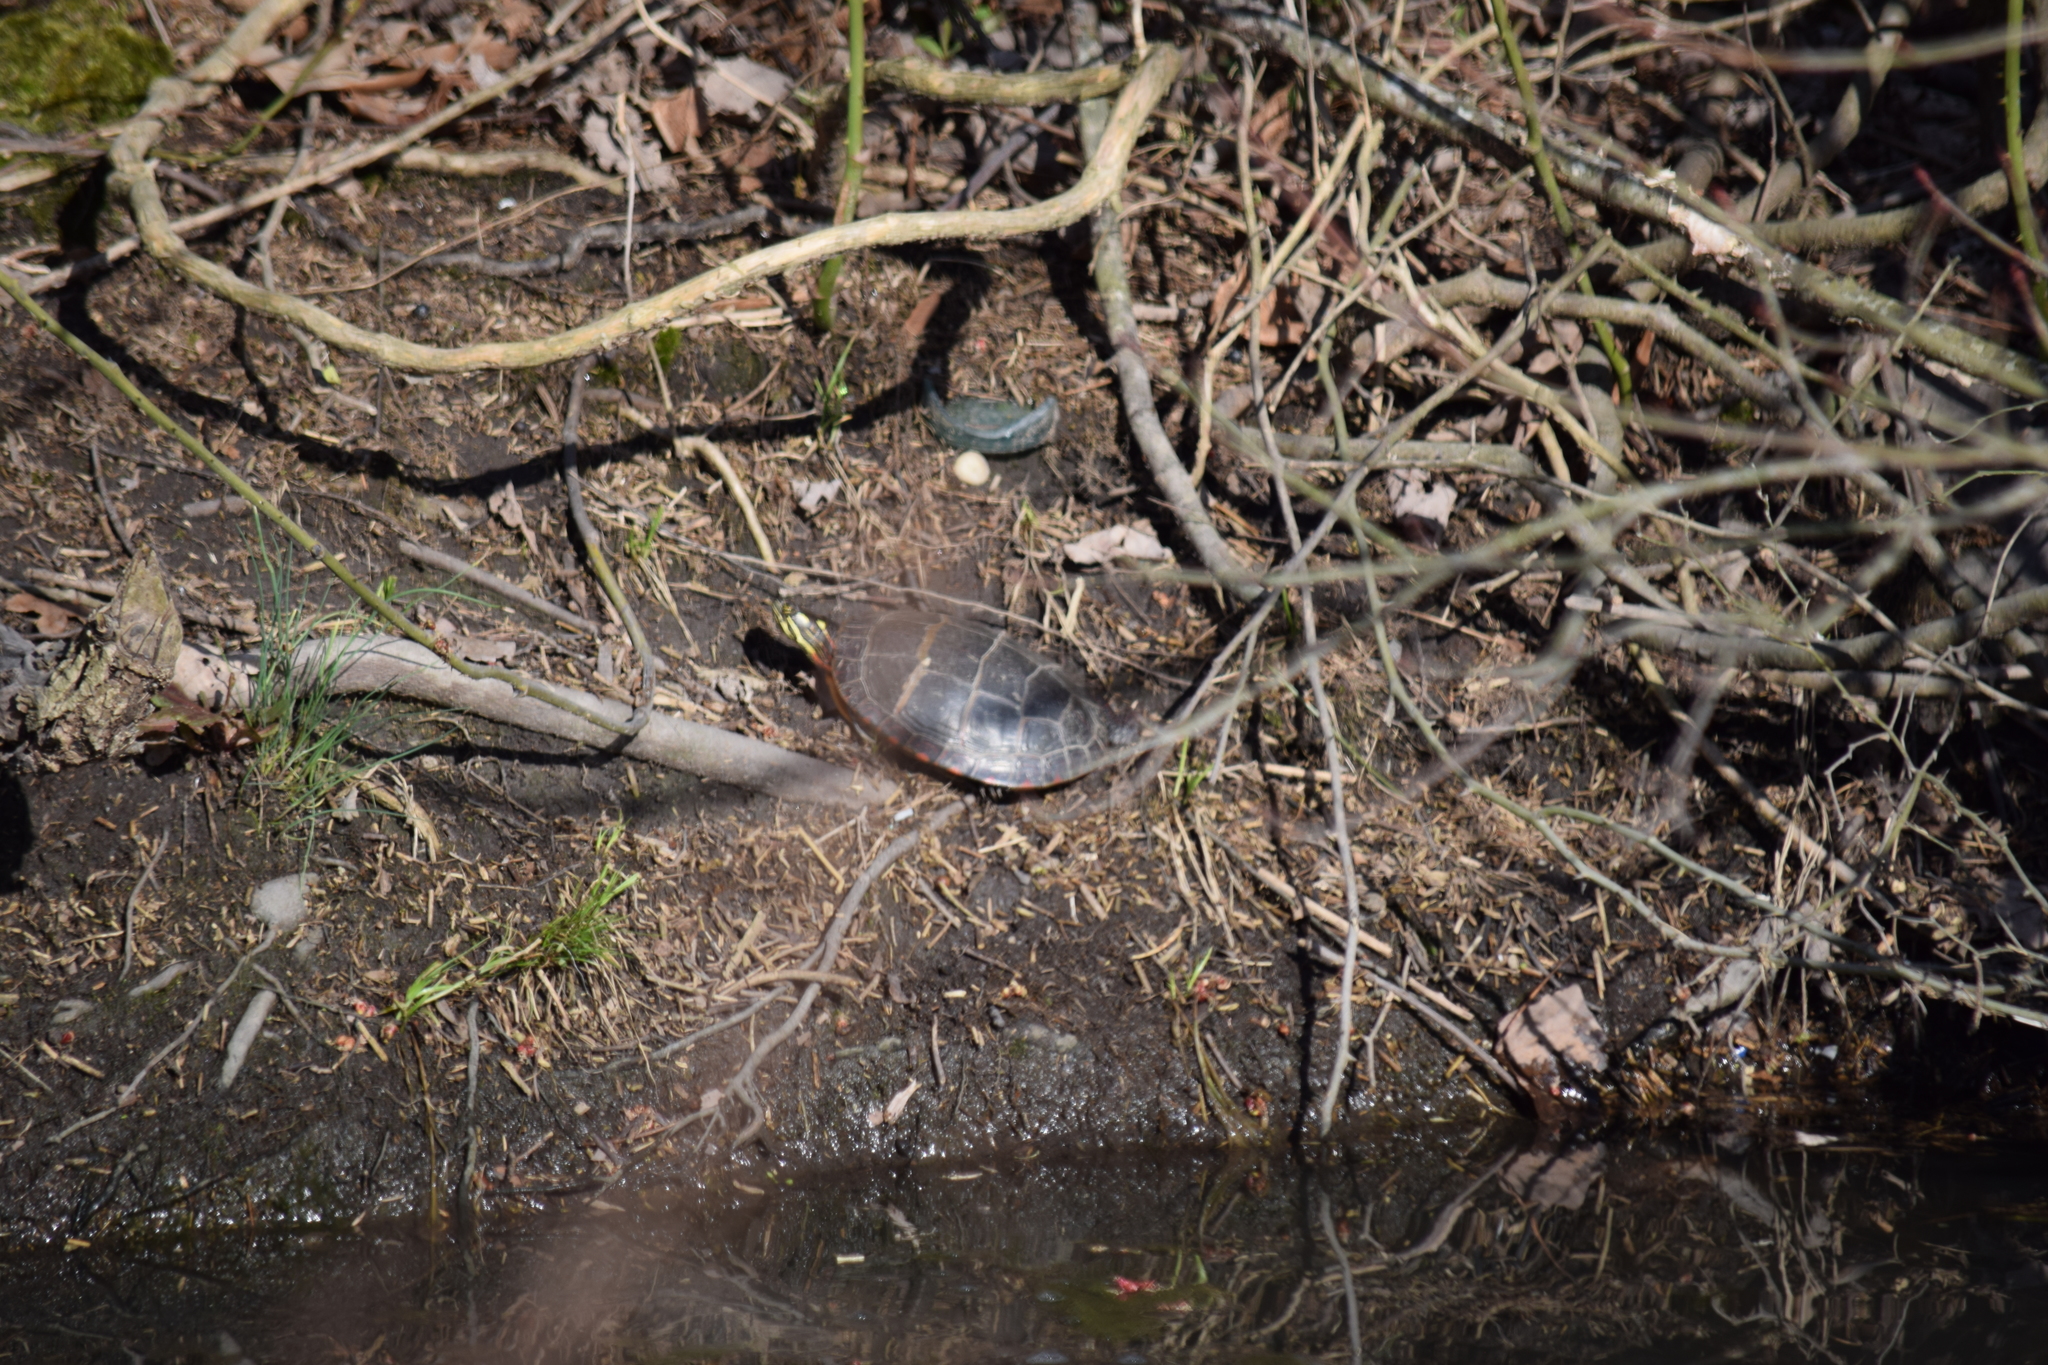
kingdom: Animalia
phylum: Chordata
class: Testudines
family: Emydidae
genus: Chrysemys
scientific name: Chrysemys picta
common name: Painted turtle
